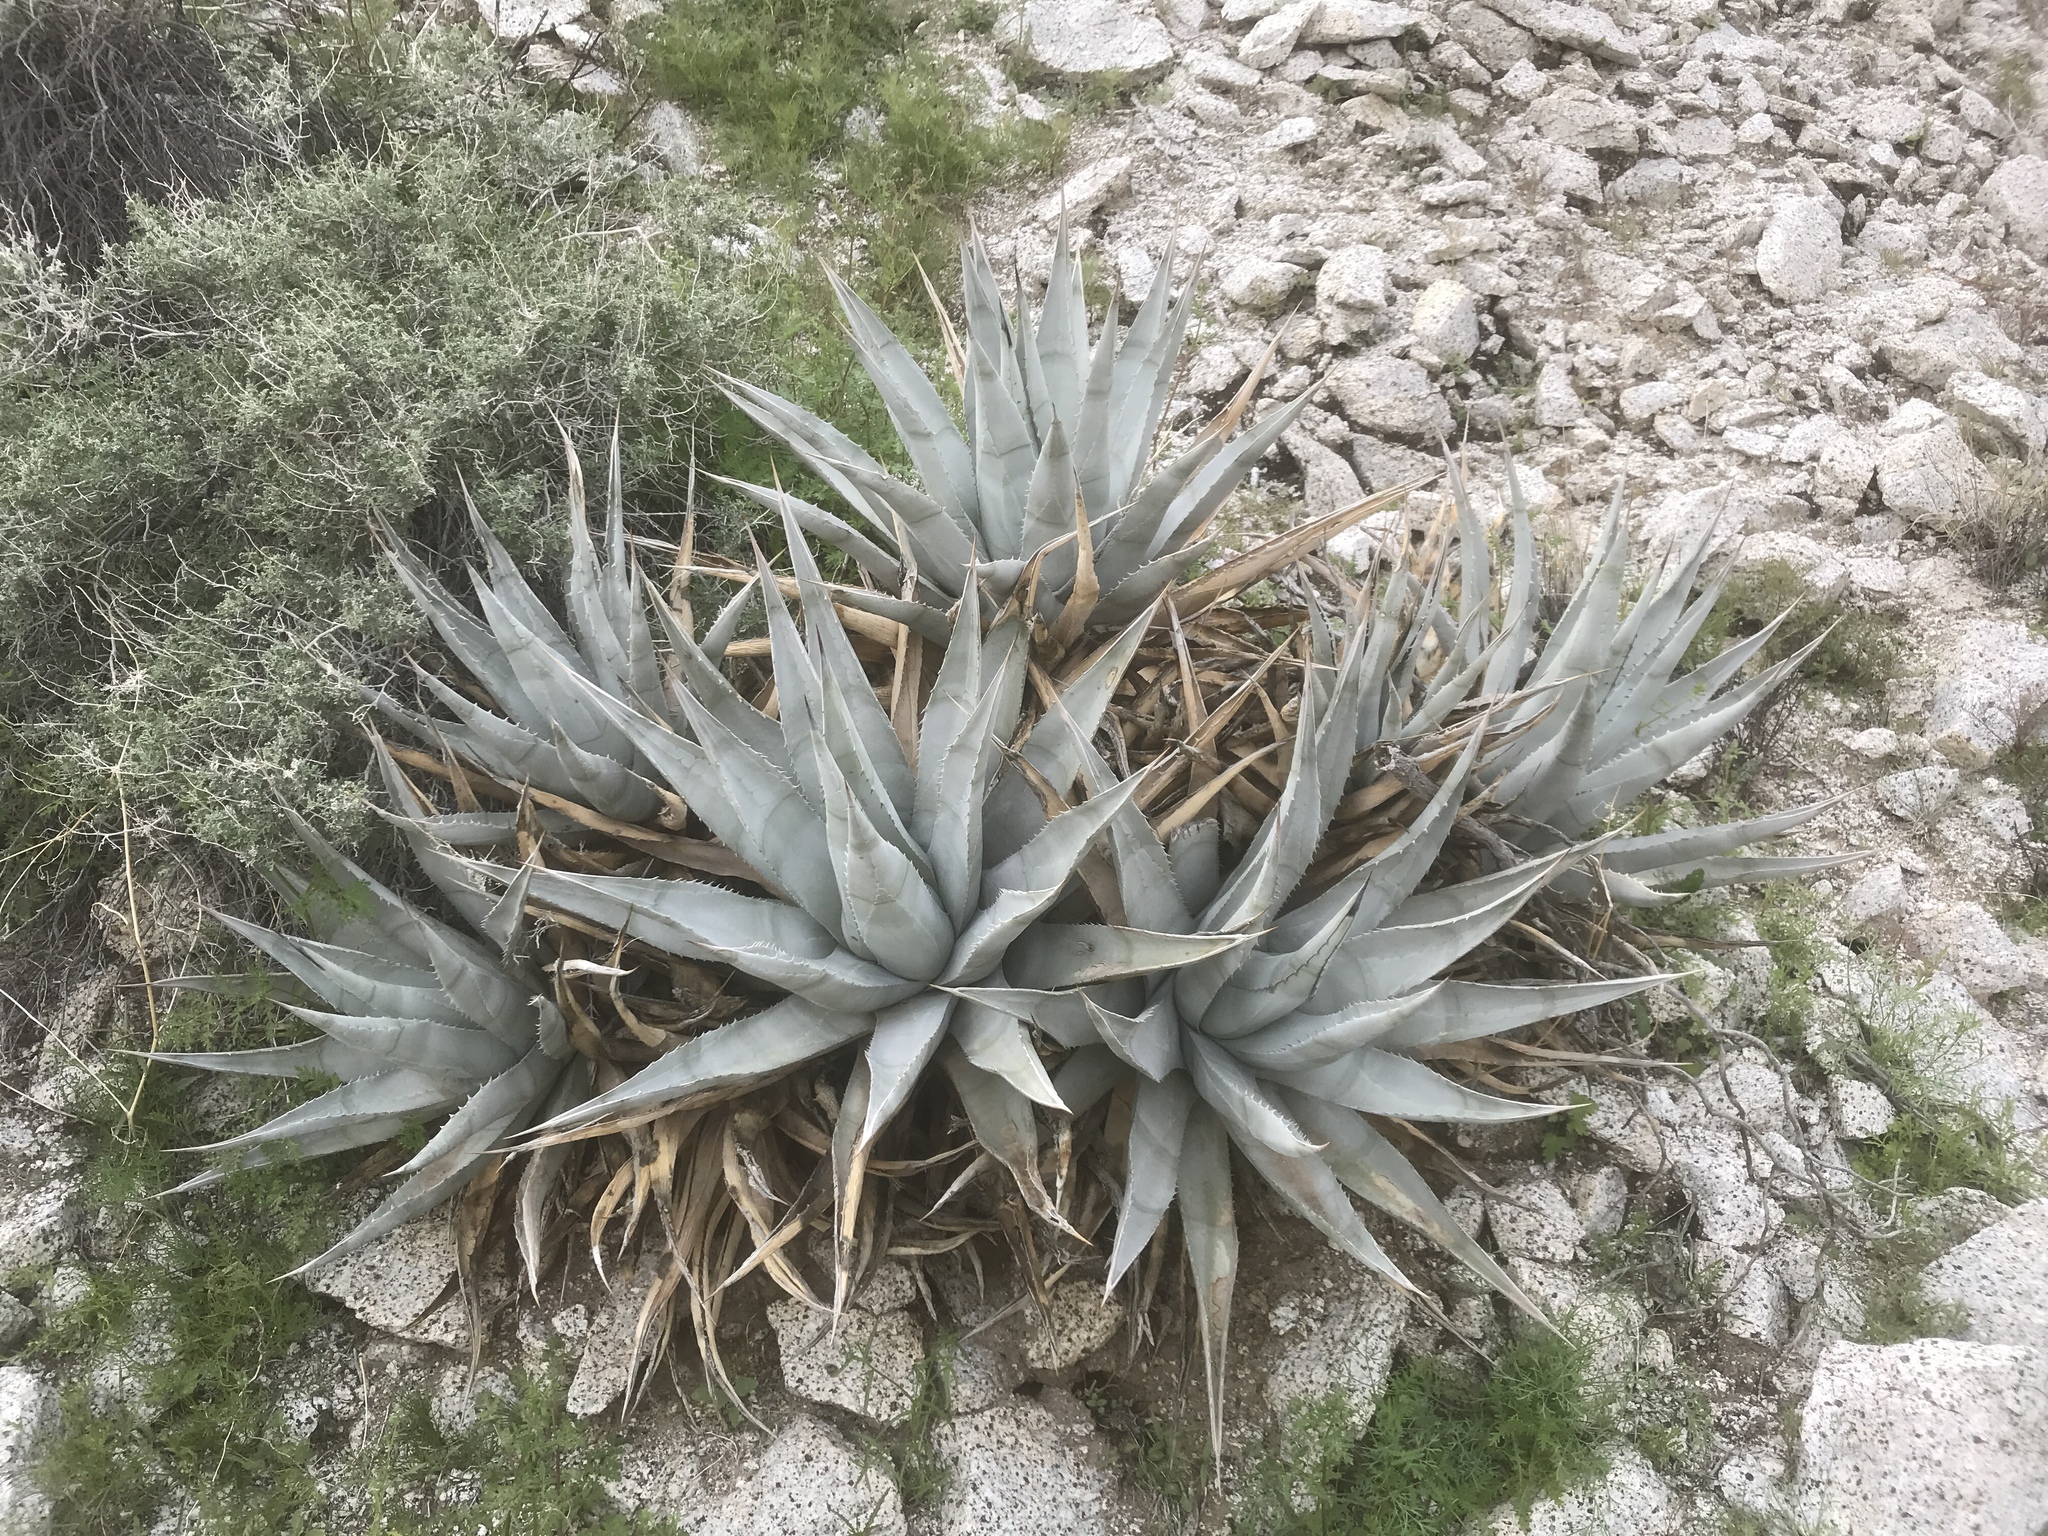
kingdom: Plantae
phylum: Tracheophyta
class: Liliopsida
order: Asparagales
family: Asparagaceae
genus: Agave
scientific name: Agave deserti
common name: Desert agave
